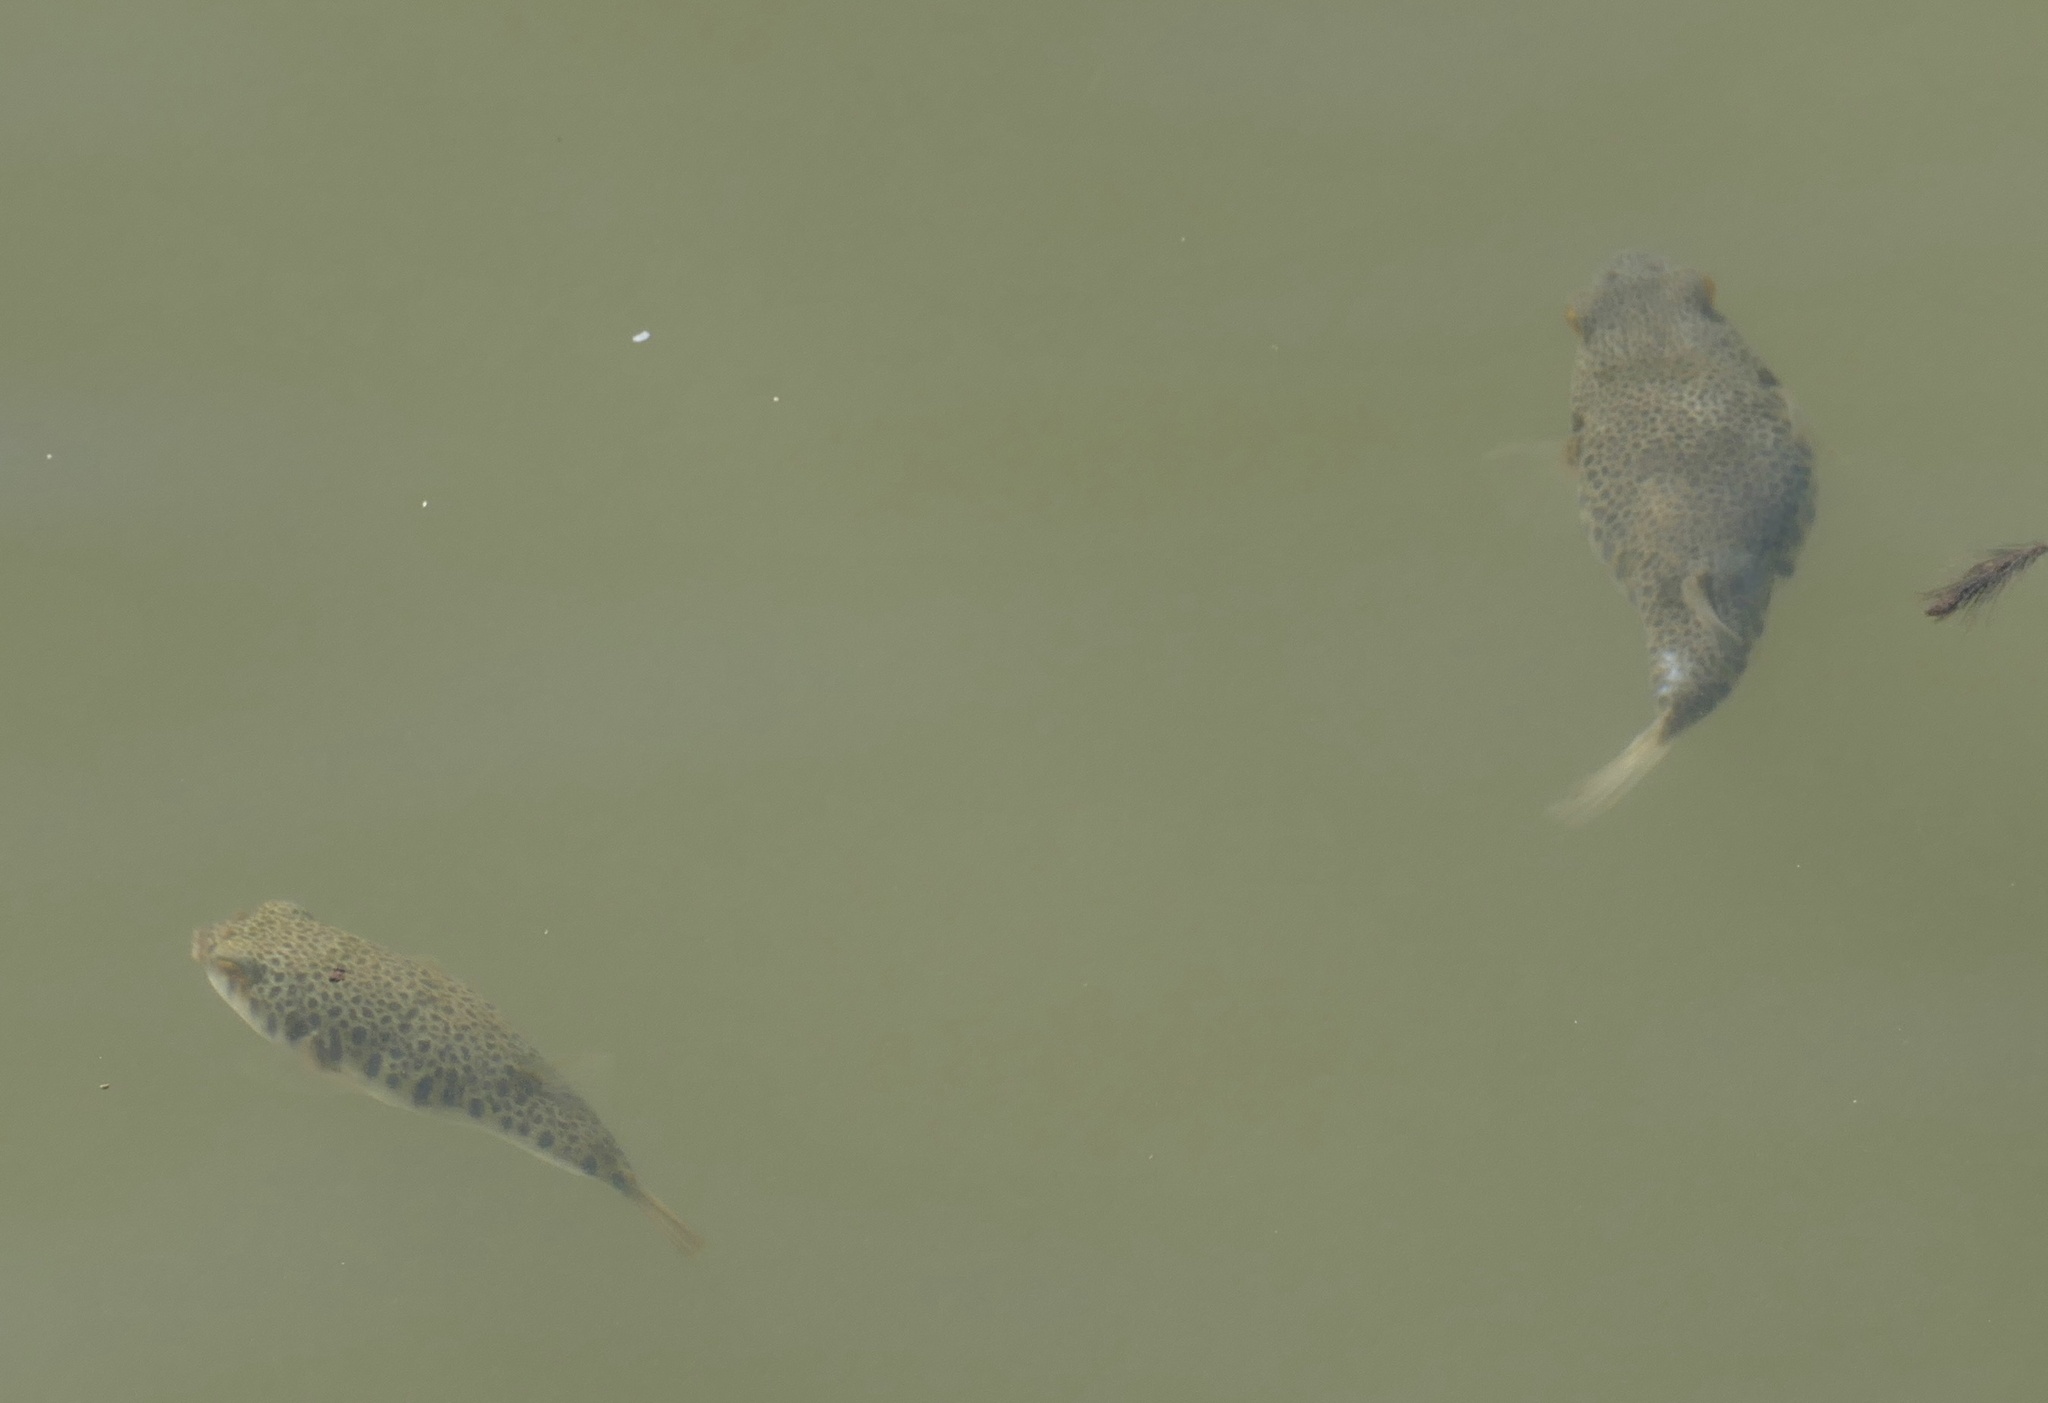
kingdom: Animalia
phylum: Chordata
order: Tetraodontiformes
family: Tetraodontidae
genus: Tetractenos
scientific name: Tetractenos hamiltoni
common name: Common toadfish
